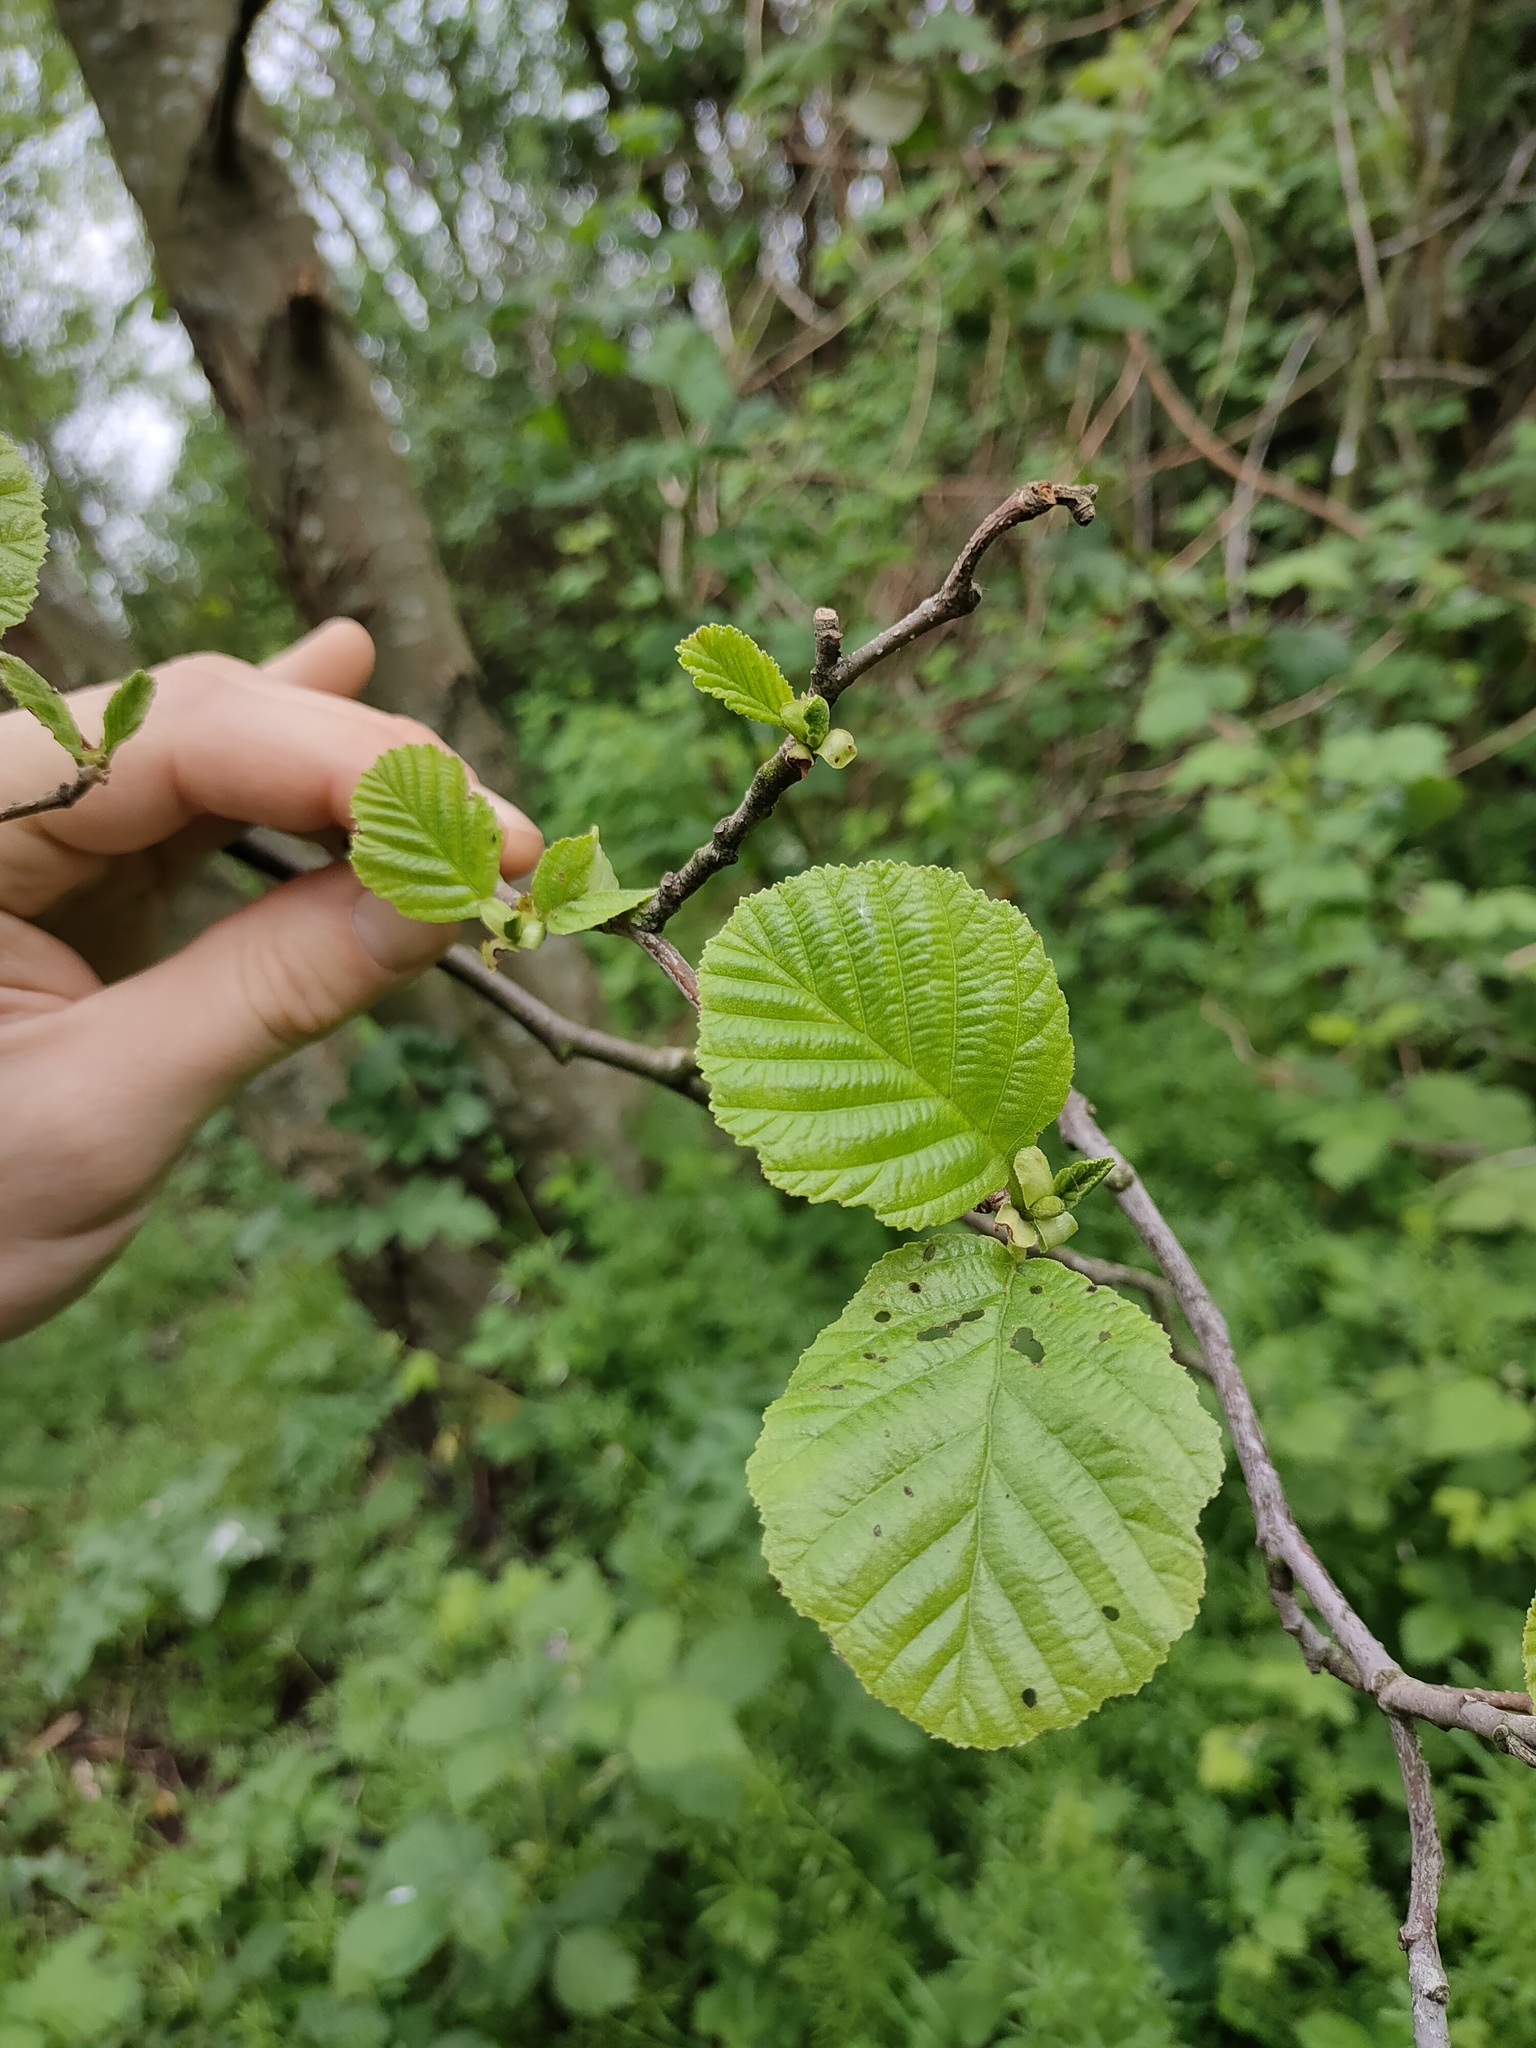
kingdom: Plantae
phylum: Tracheophyta
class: Magnoliopsida
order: Fagales
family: Betulaceae
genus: Alnus
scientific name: Alnus glutinosa
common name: Black alder
